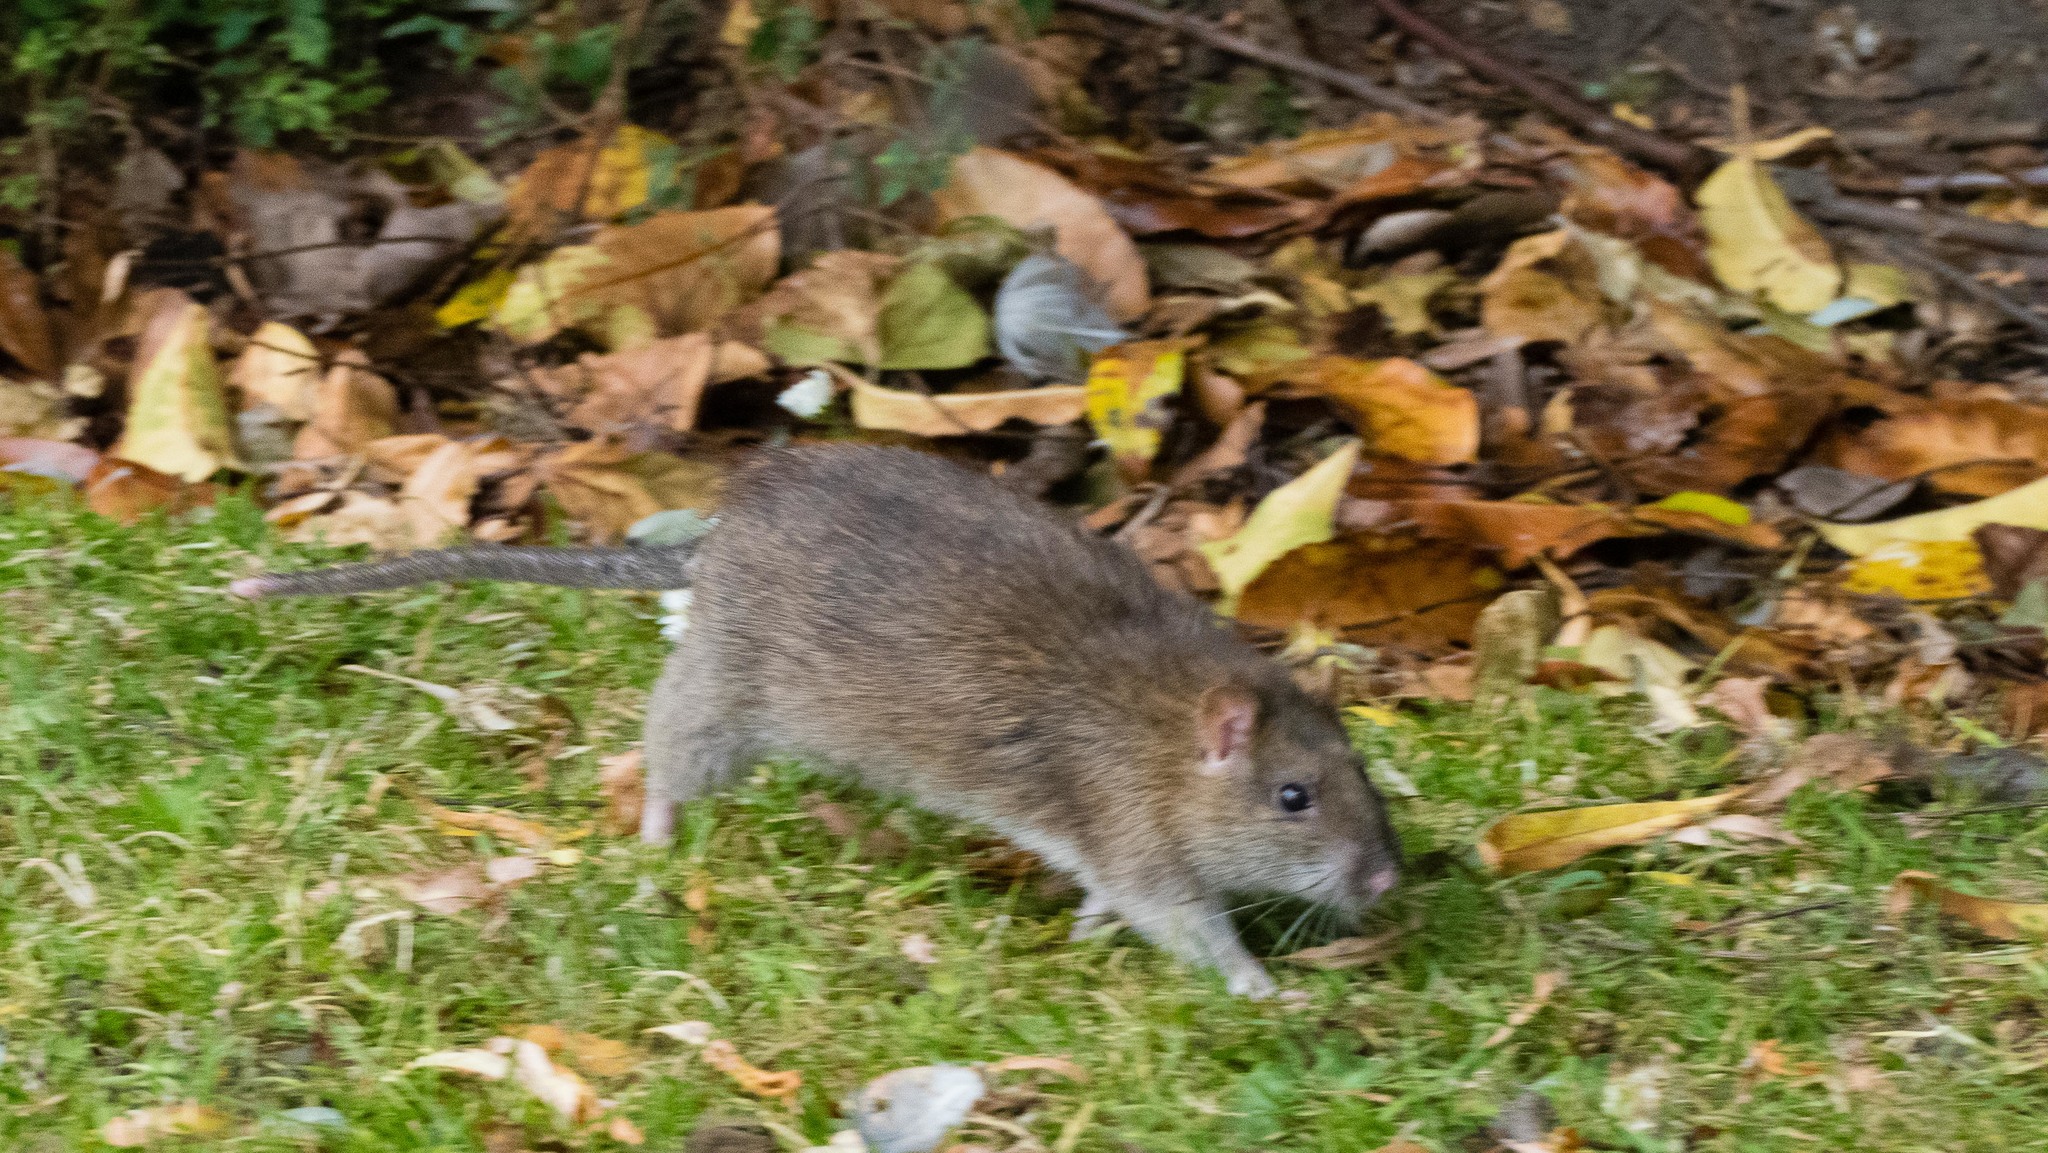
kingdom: Animalia
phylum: Chordata
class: Mammalia
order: Rodentia
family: Muridae
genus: Rattus
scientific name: Rattus norvegicus
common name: Brown rat
